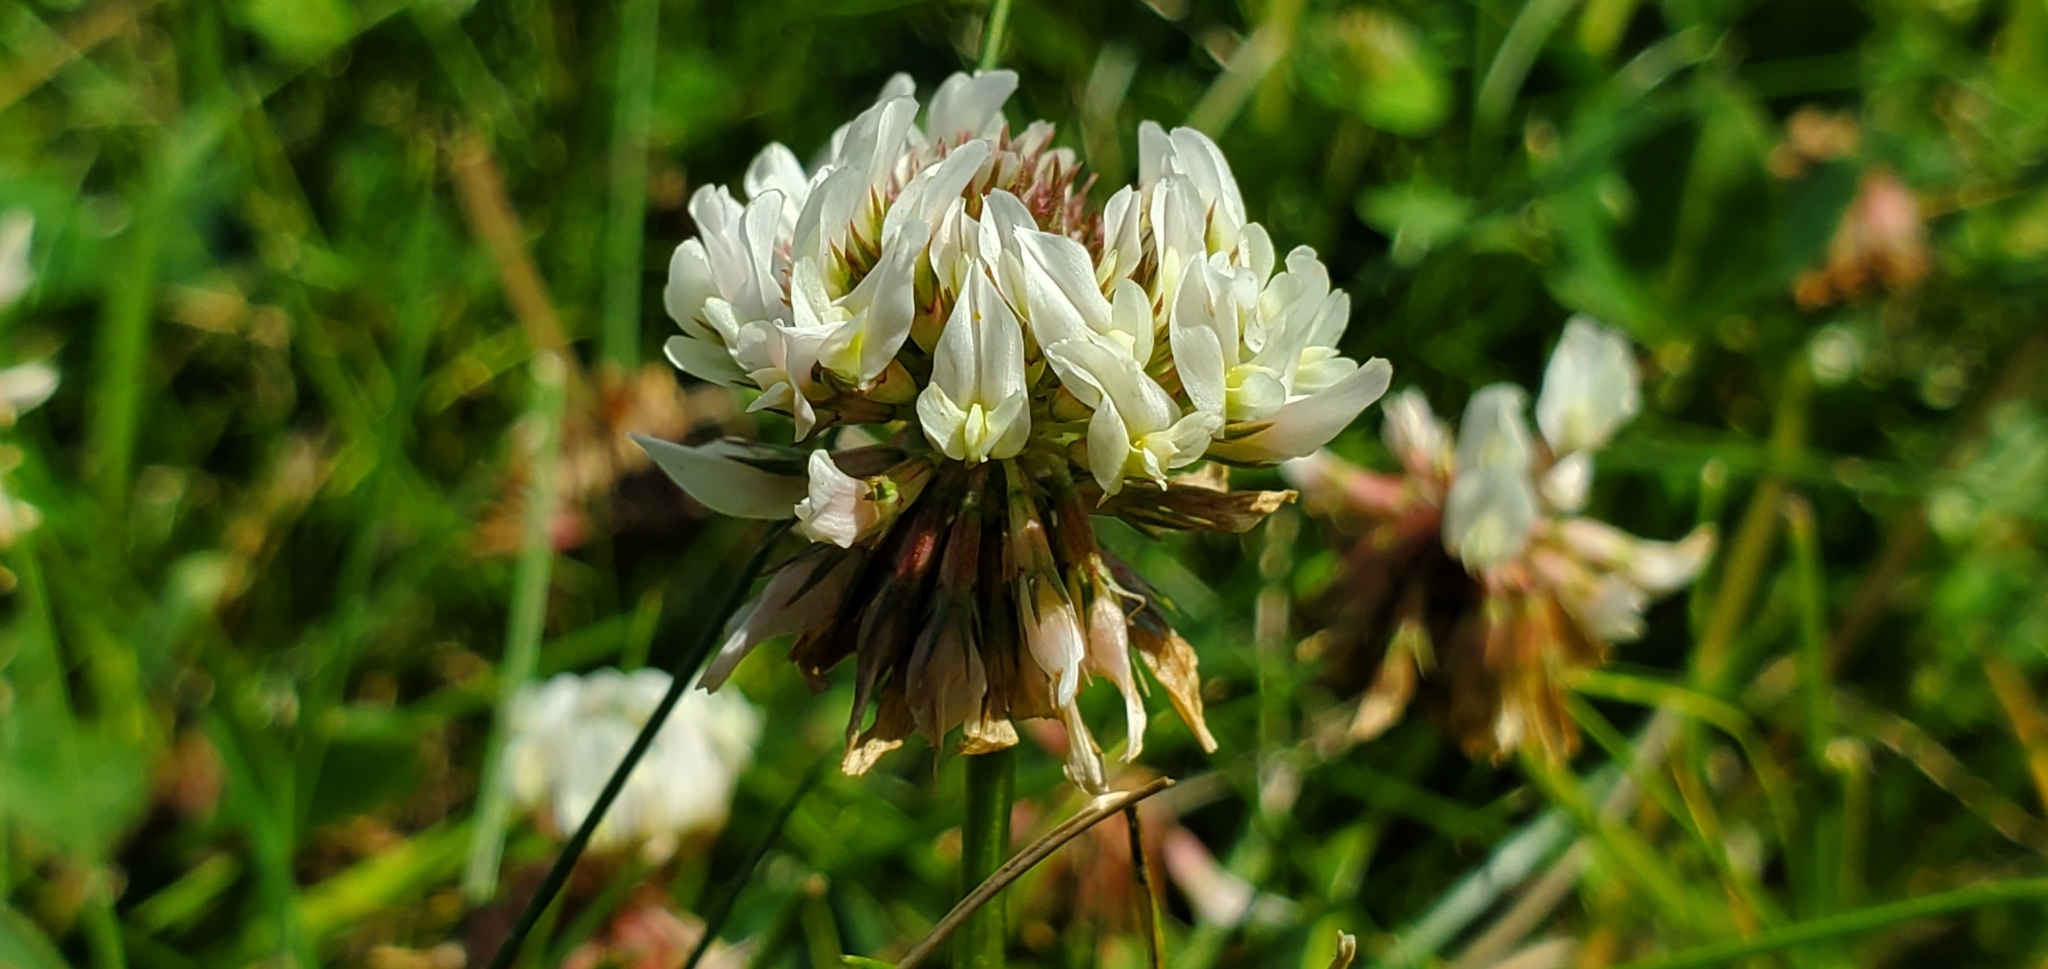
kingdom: Plantae
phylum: Tracheophyta
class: Magnoliopsida
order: Fabales
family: Fabaceae
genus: Trifolium
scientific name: Trifolium repens
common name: White clover
